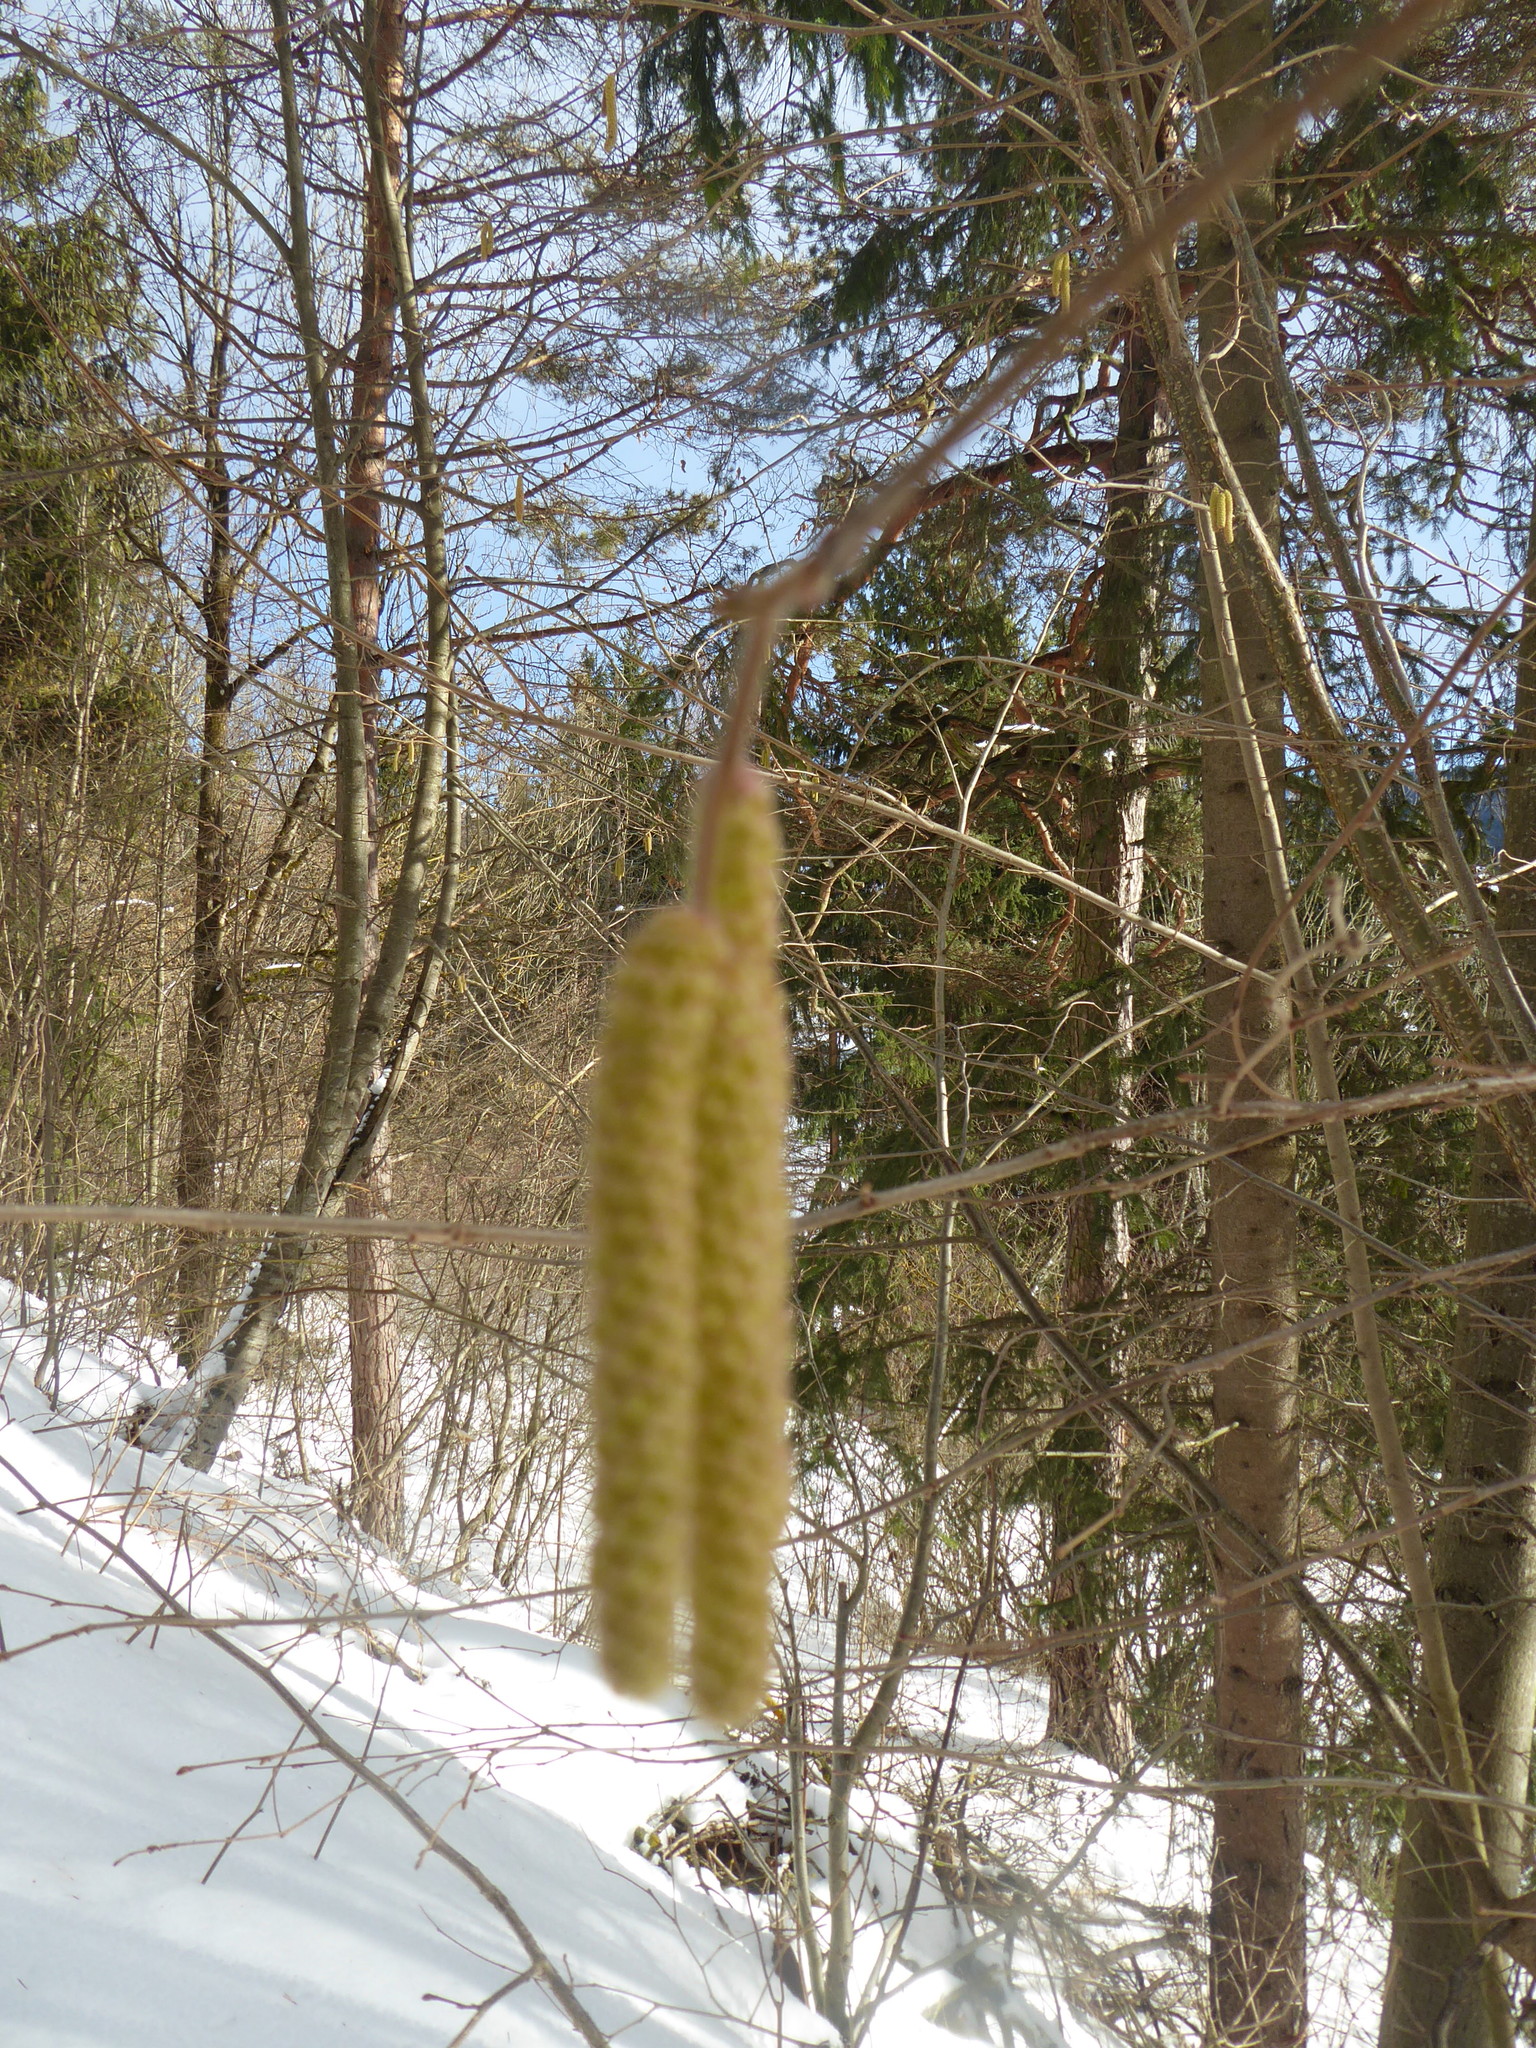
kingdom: Plantae
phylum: Tracheophyta
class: Magnoliopsida
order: Fagales
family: Betulaceae
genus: Corylus
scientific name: Corylus avellana
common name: European hazel
